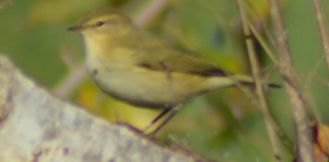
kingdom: Animalia
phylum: Chordata
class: Aves
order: Passeriformes
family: Phylloscopidae
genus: Phylloscopus
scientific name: Phylloscopus collybita
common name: Common chiffchaff
